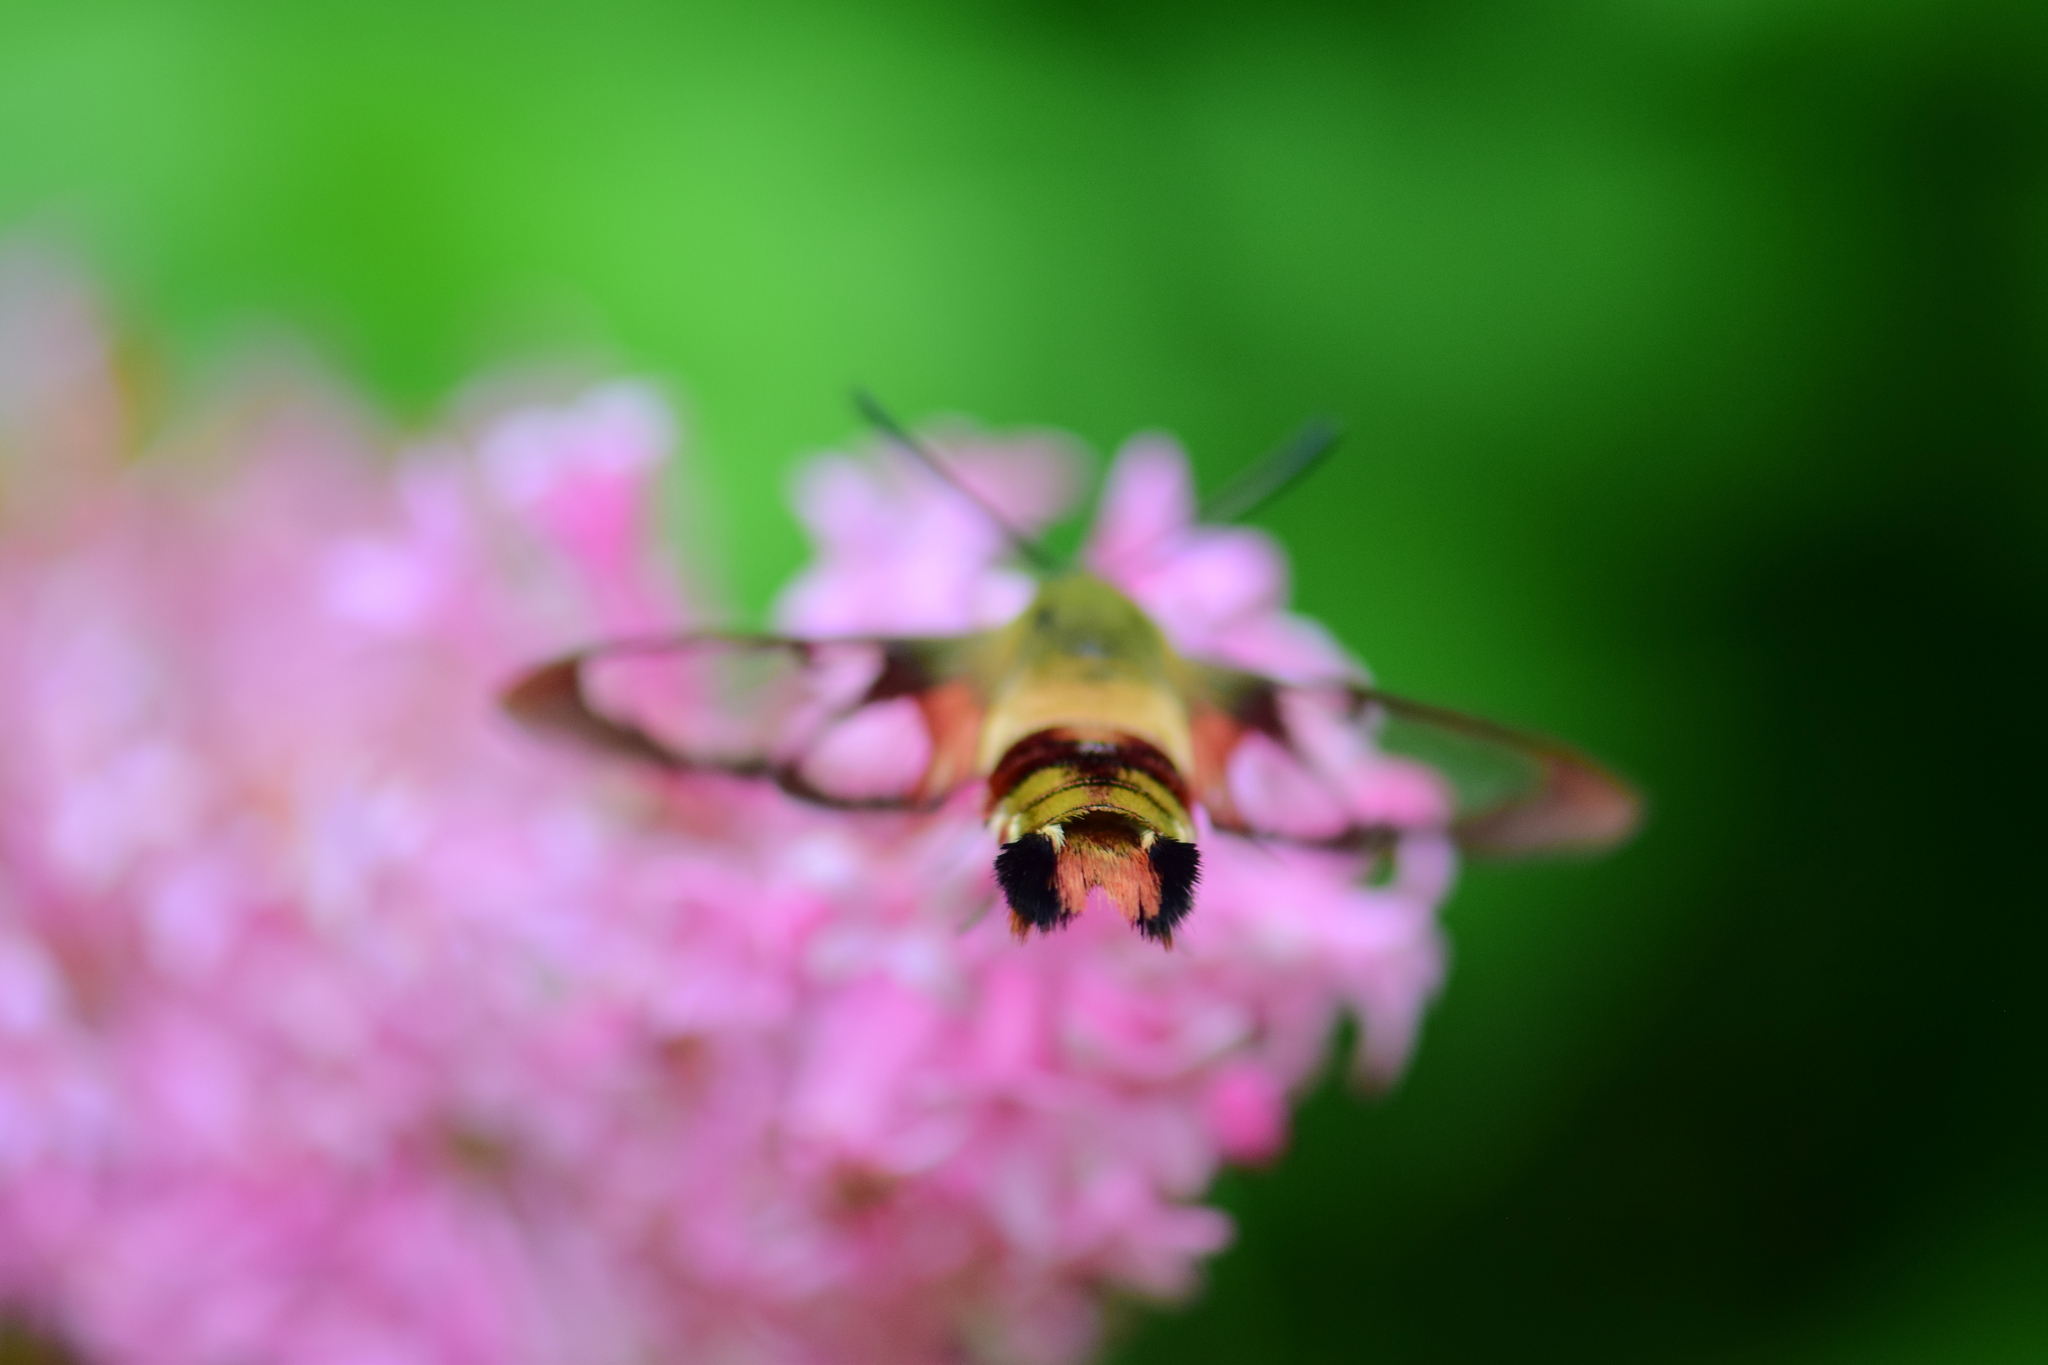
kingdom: Animalia
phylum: Arthropoda
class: Insecta
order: Lepidoptera
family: Sphingidae
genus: Hemaris
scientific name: Hemaris thysbe
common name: Common clear-wing
